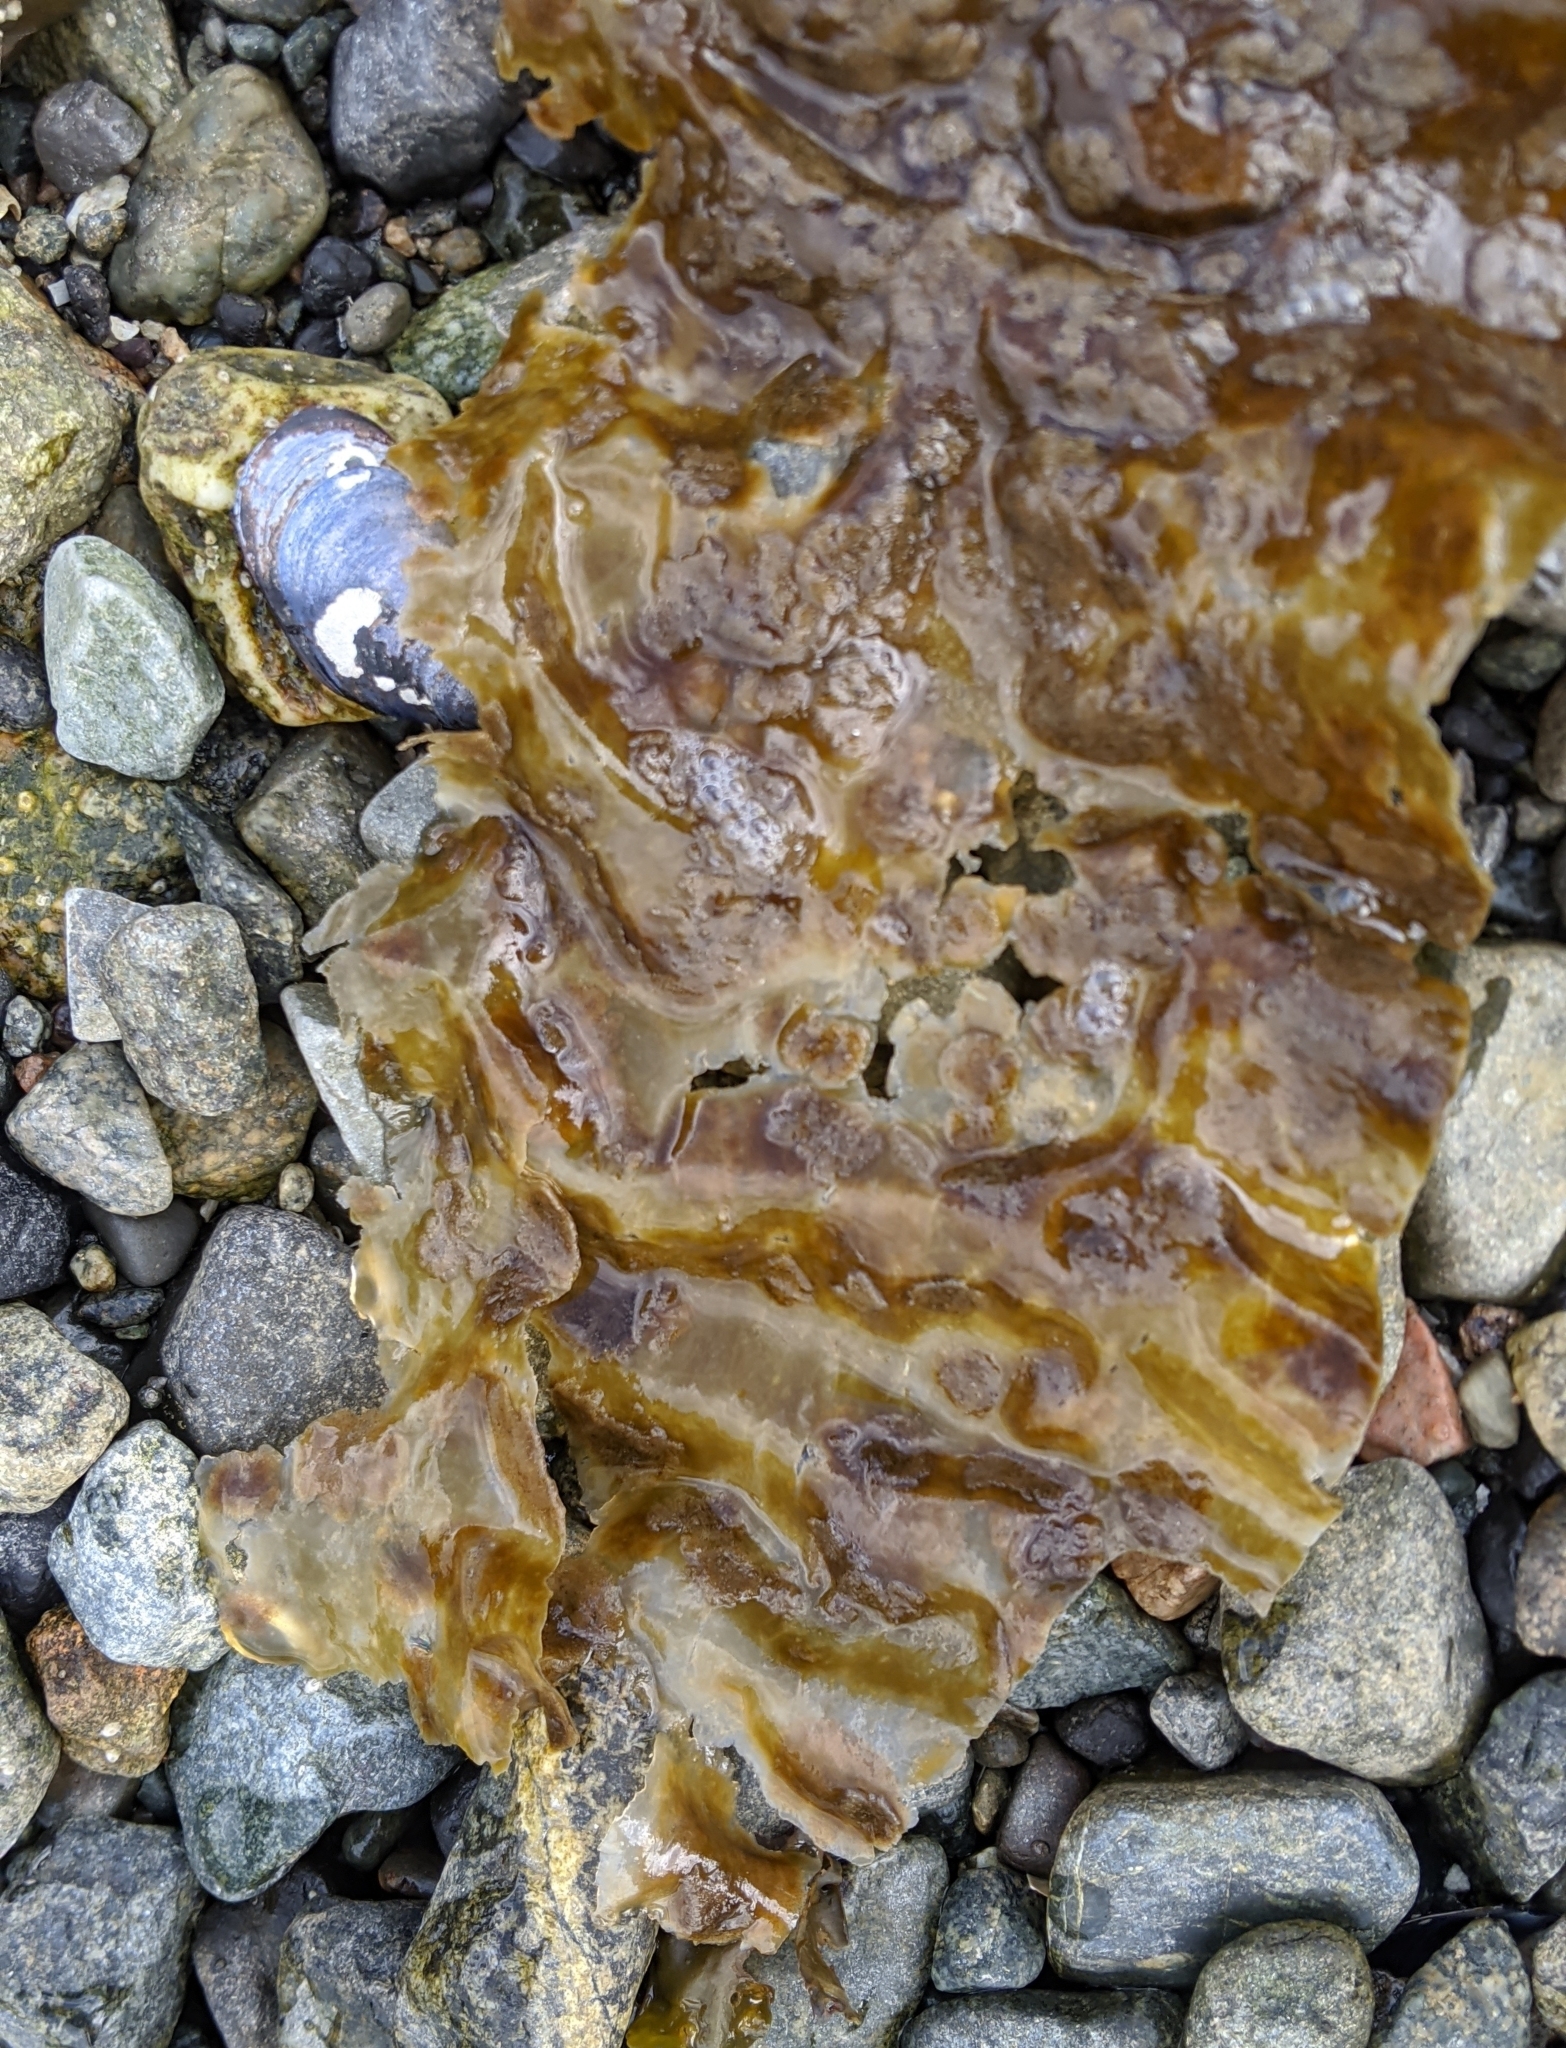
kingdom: Chromista
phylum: Ochrophyta
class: Phaeophyceae
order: Laminariales
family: Laminariaceae
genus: Saccharina
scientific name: Saccharina latissima
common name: Poor man's weather glass
